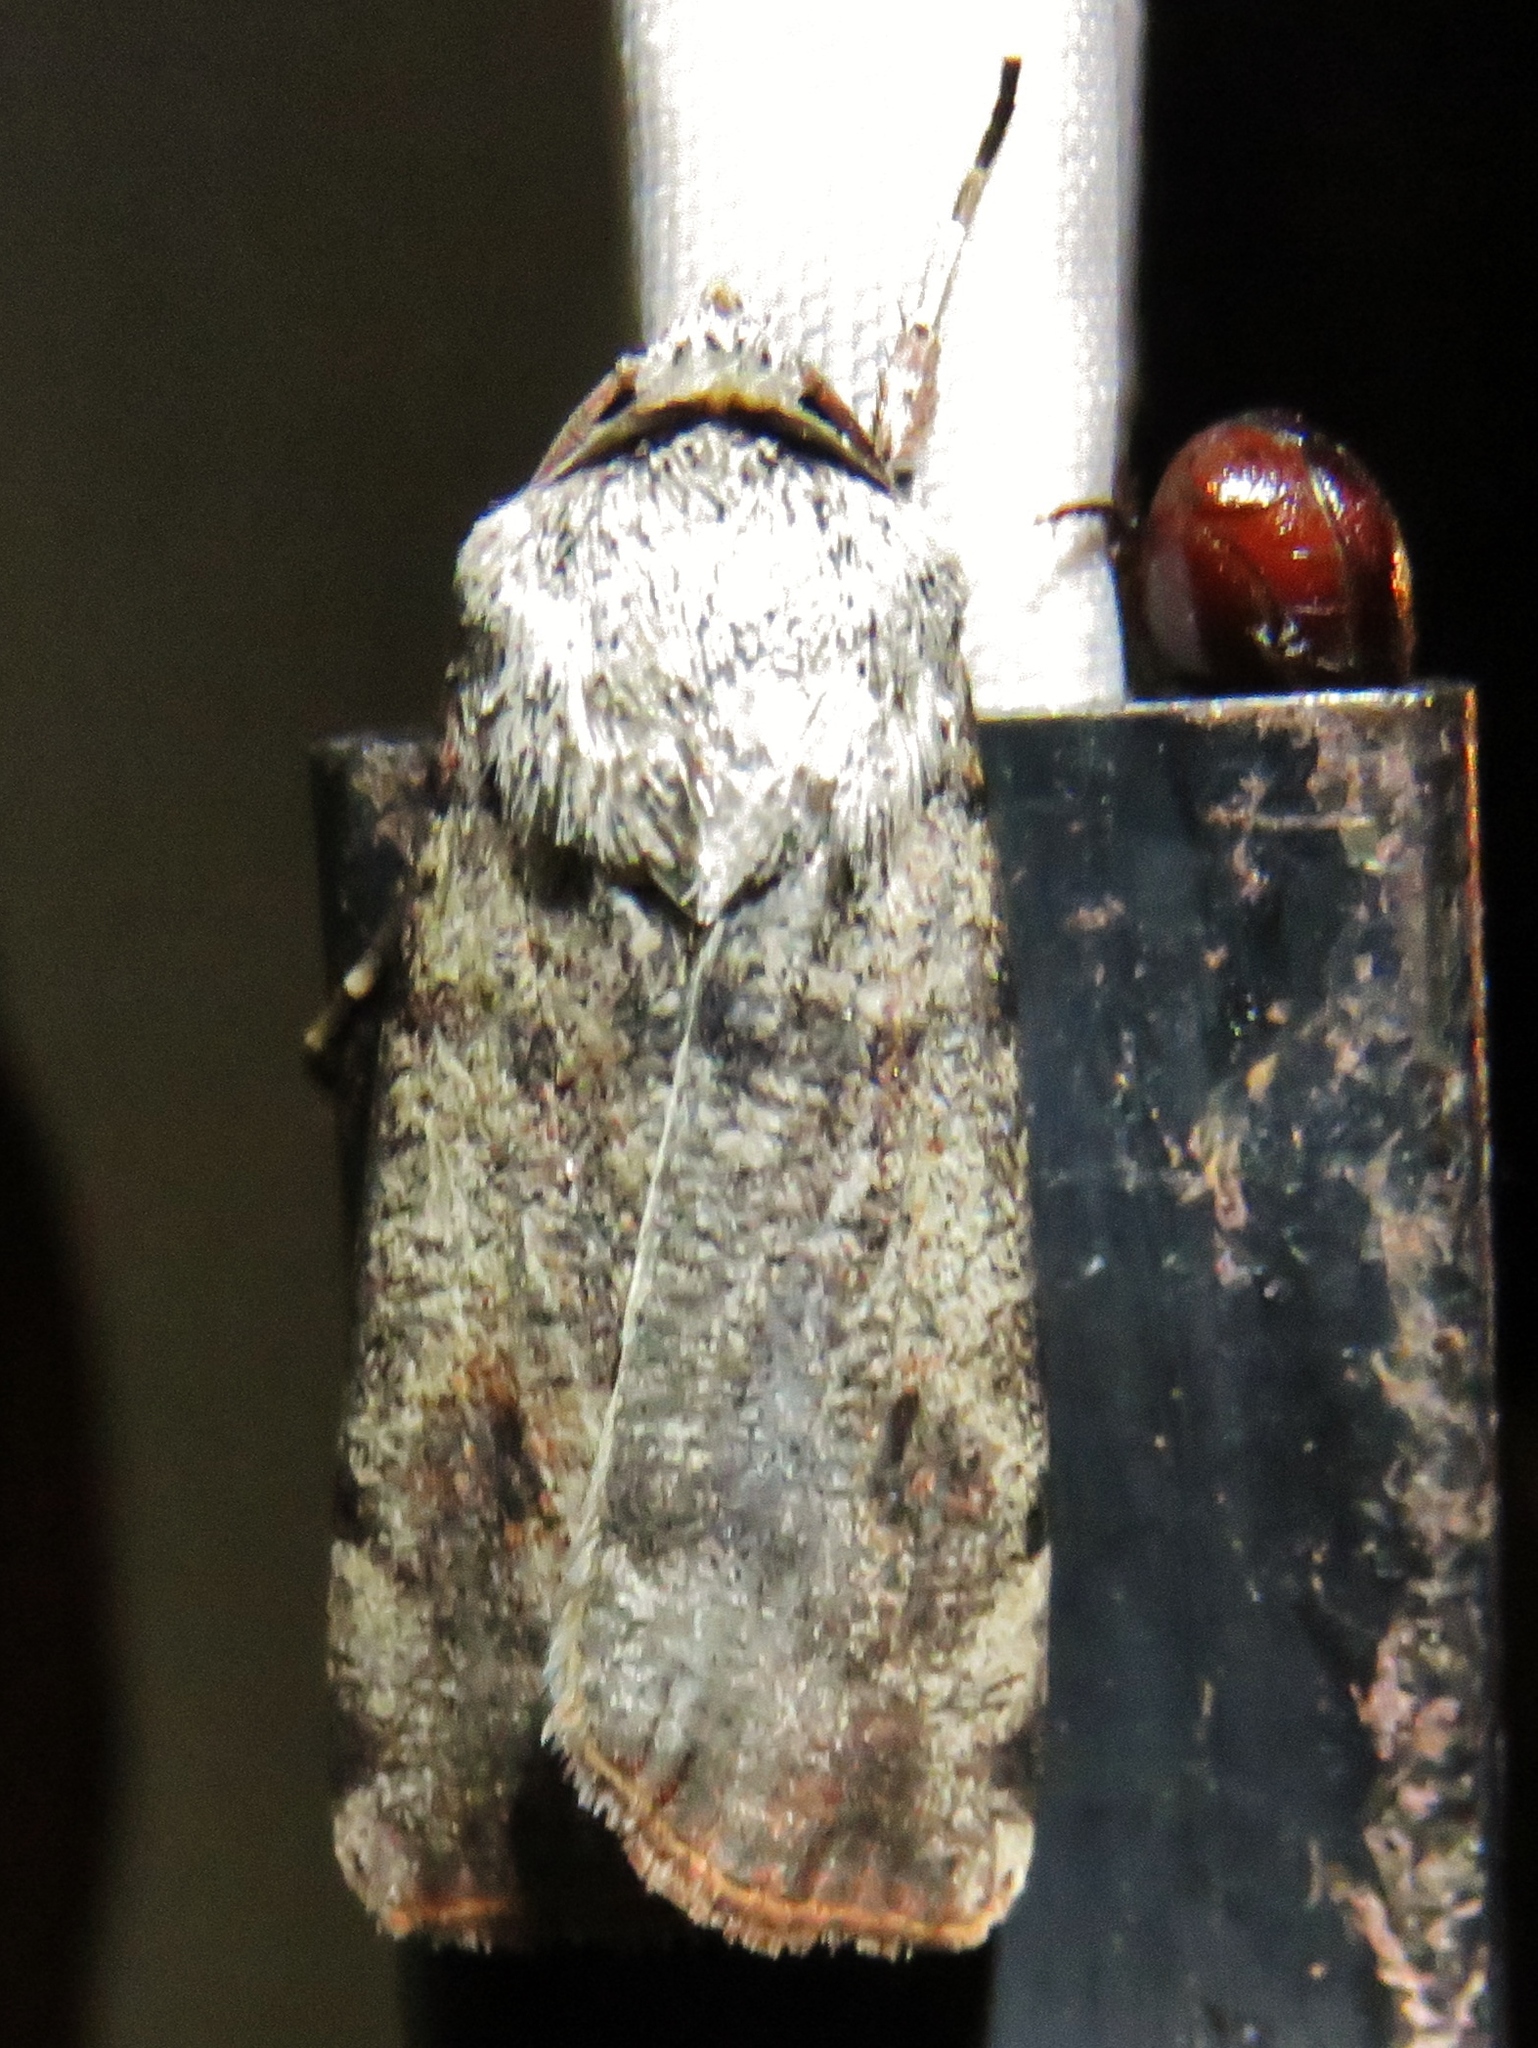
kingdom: Animalia
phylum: Arthropoda
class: Insecta
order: Lepidoptera
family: Noctuidae
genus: Anicla
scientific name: Anicla infecta
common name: Green cutworm
